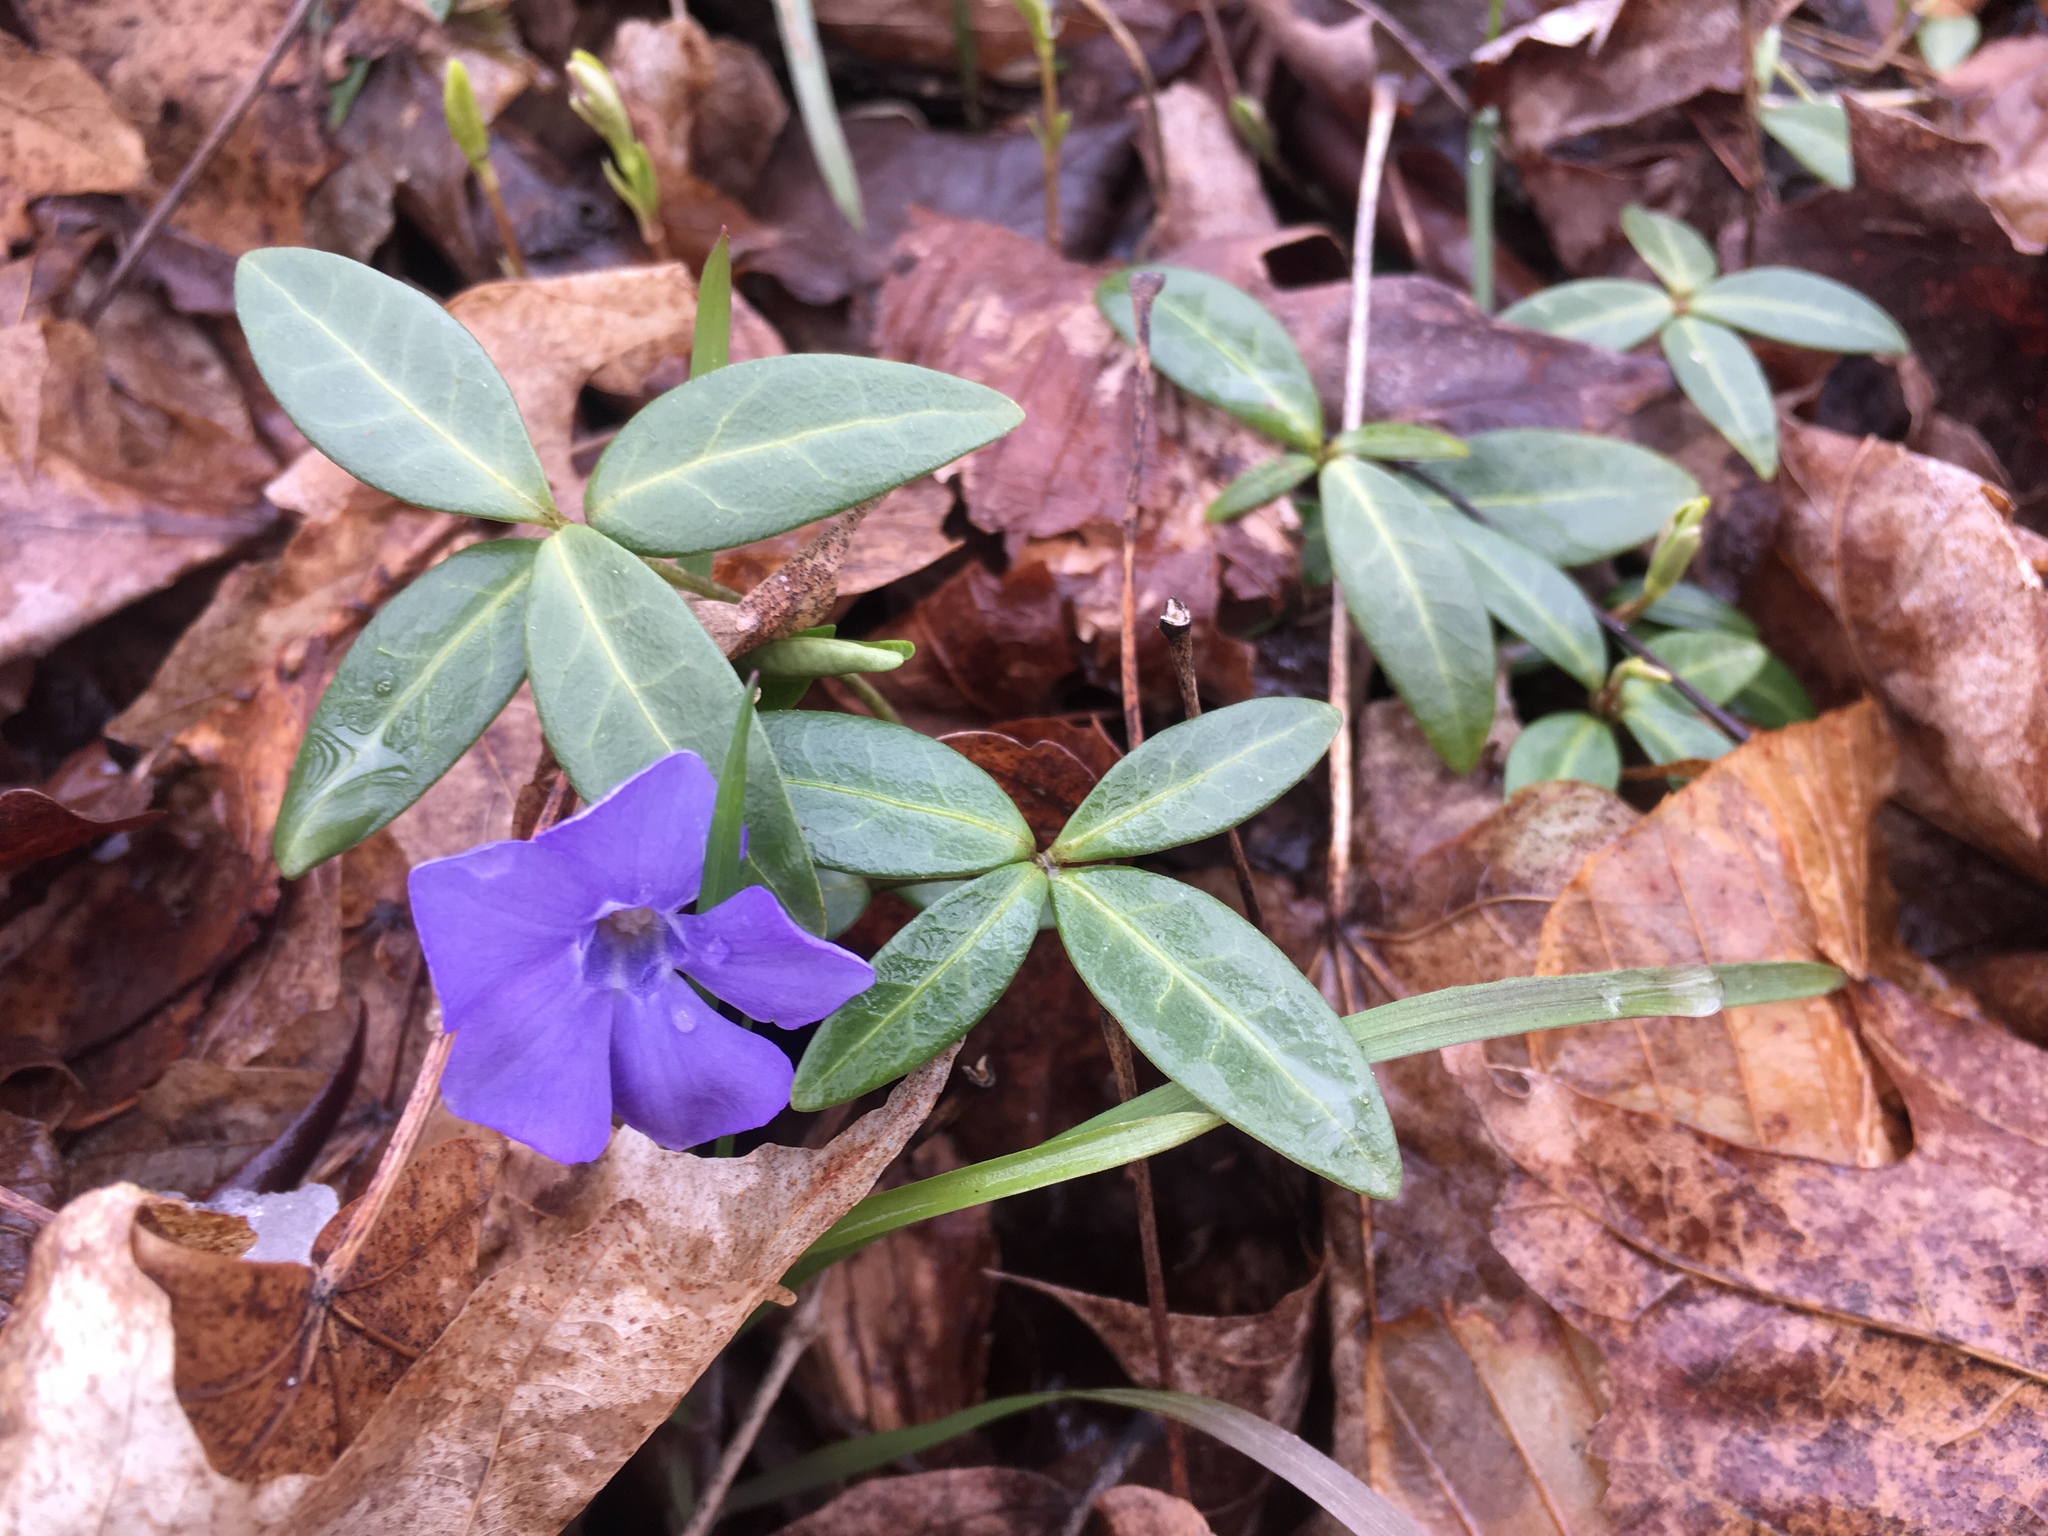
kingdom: Plantae
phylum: Tracheophyta
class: Magnoliopsida
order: Gentianales
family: Apocynaceae
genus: Vinca
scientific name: Vinca minor
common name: Lesser periwinkle
